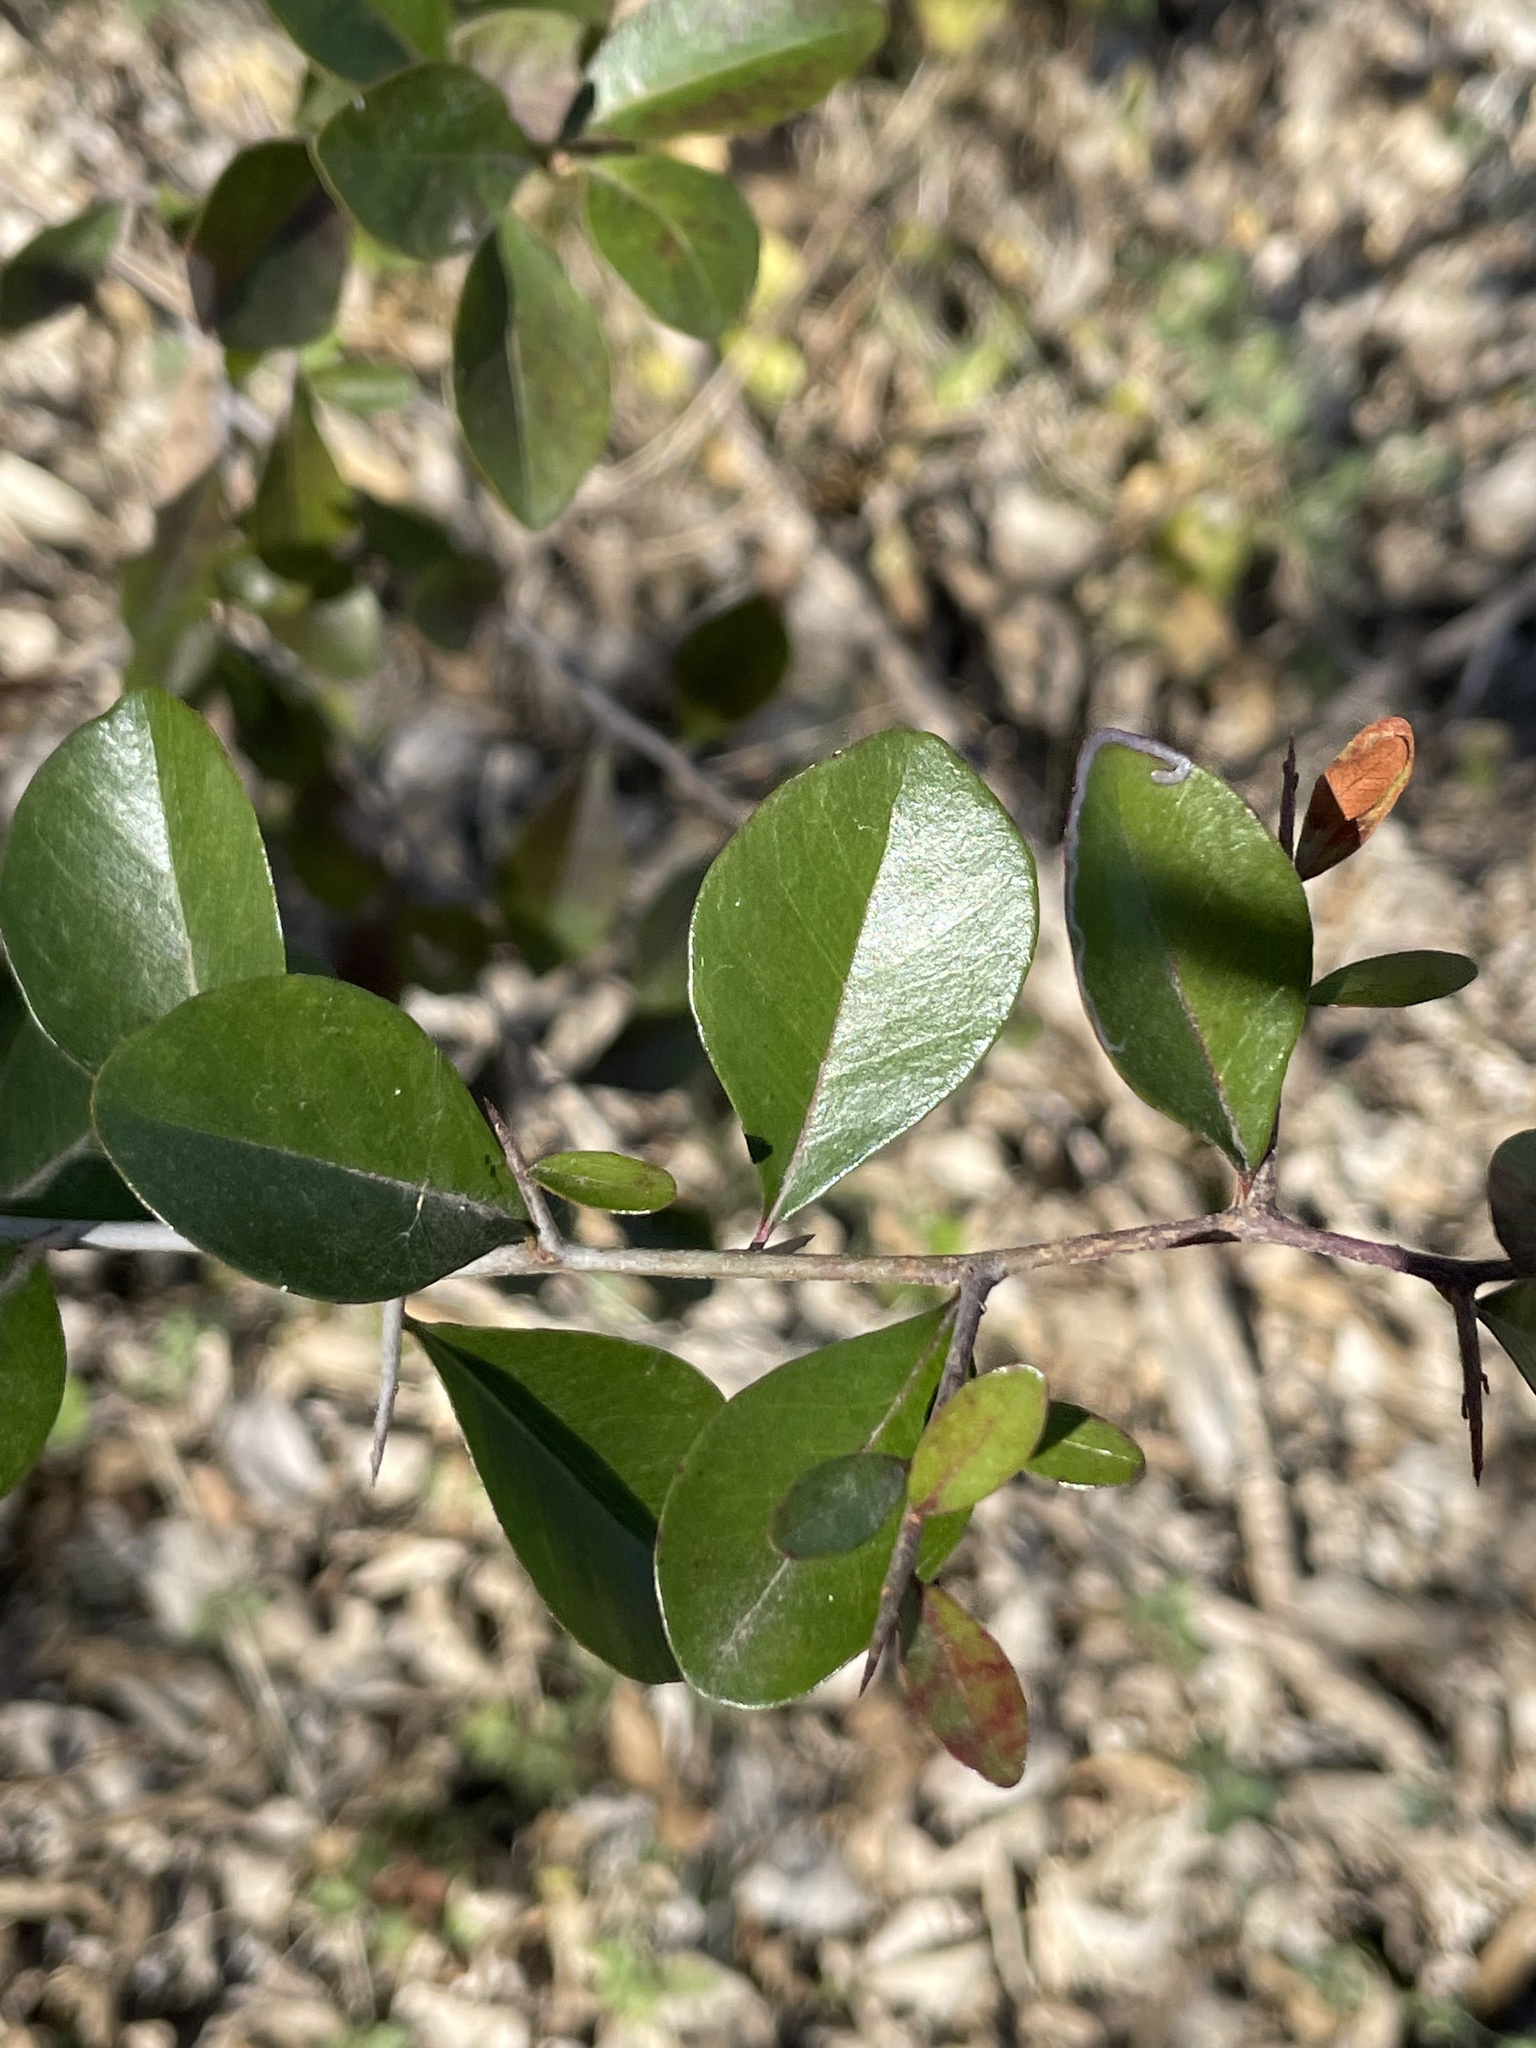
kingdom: Plantae
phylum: Tracheophyta
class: Magnoliopsida
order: Ericales
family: Sapotaceae
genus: Sideroxylon
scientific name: Sideroxylon lanuginosum
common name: Chittamwood
